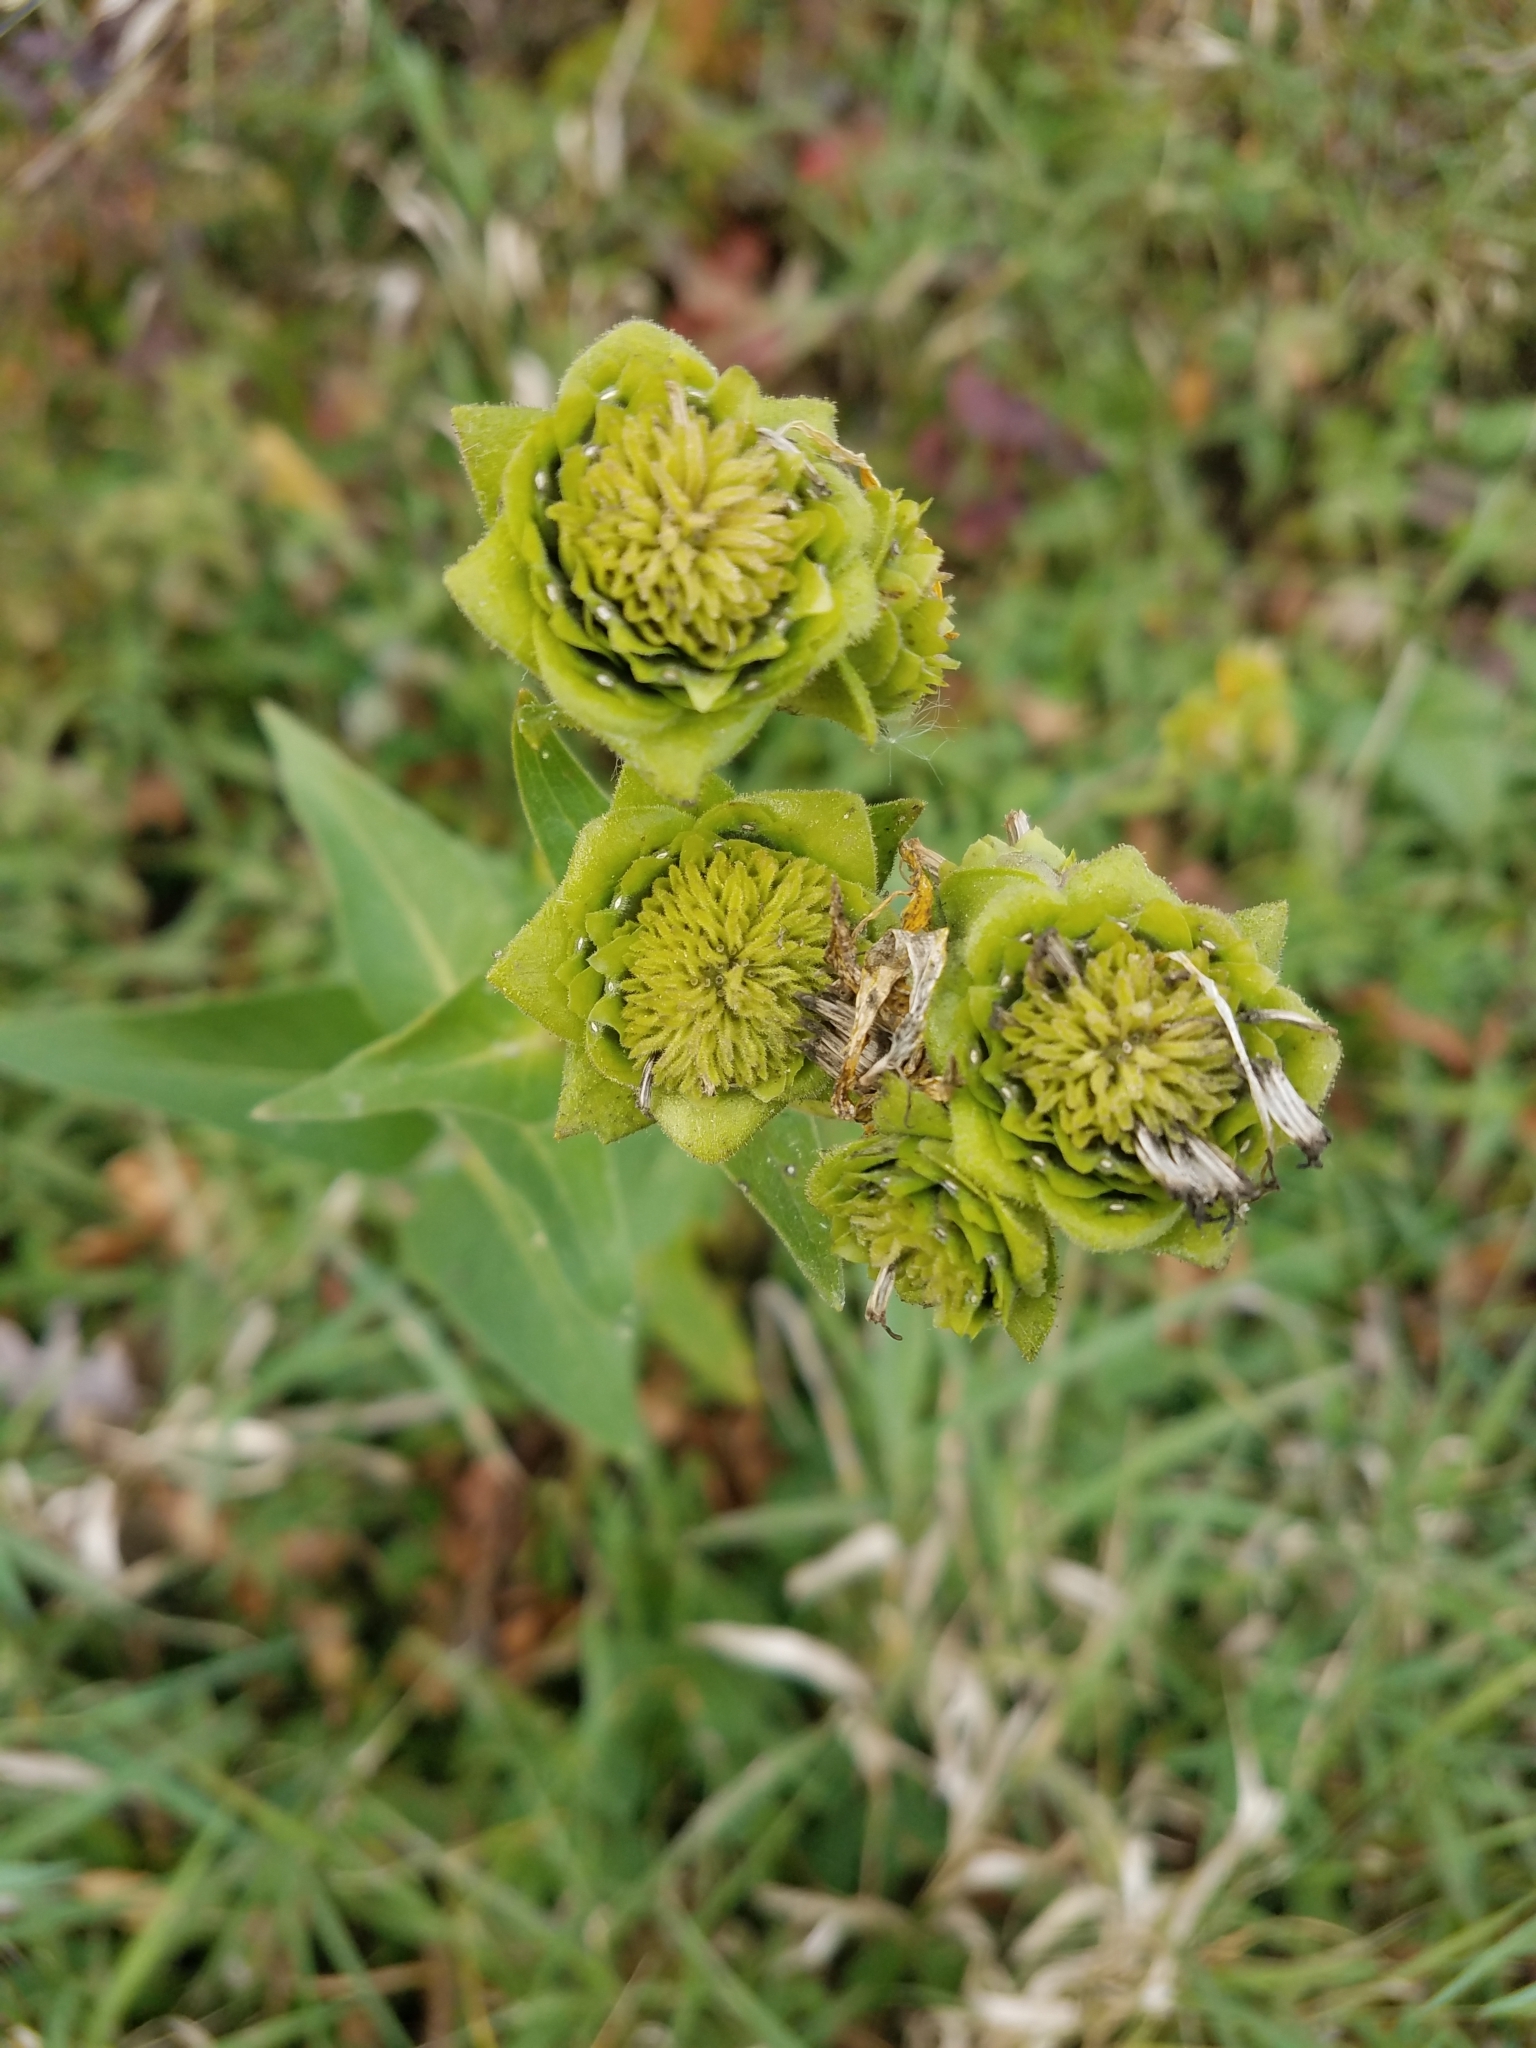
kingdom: Plantae
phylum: Tracheophyta
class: Magnoliopsida
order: Asterales
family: Asteraceae
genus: Silphium
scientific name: Silphium integrifolium
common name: Whole-leaf rosinweed
